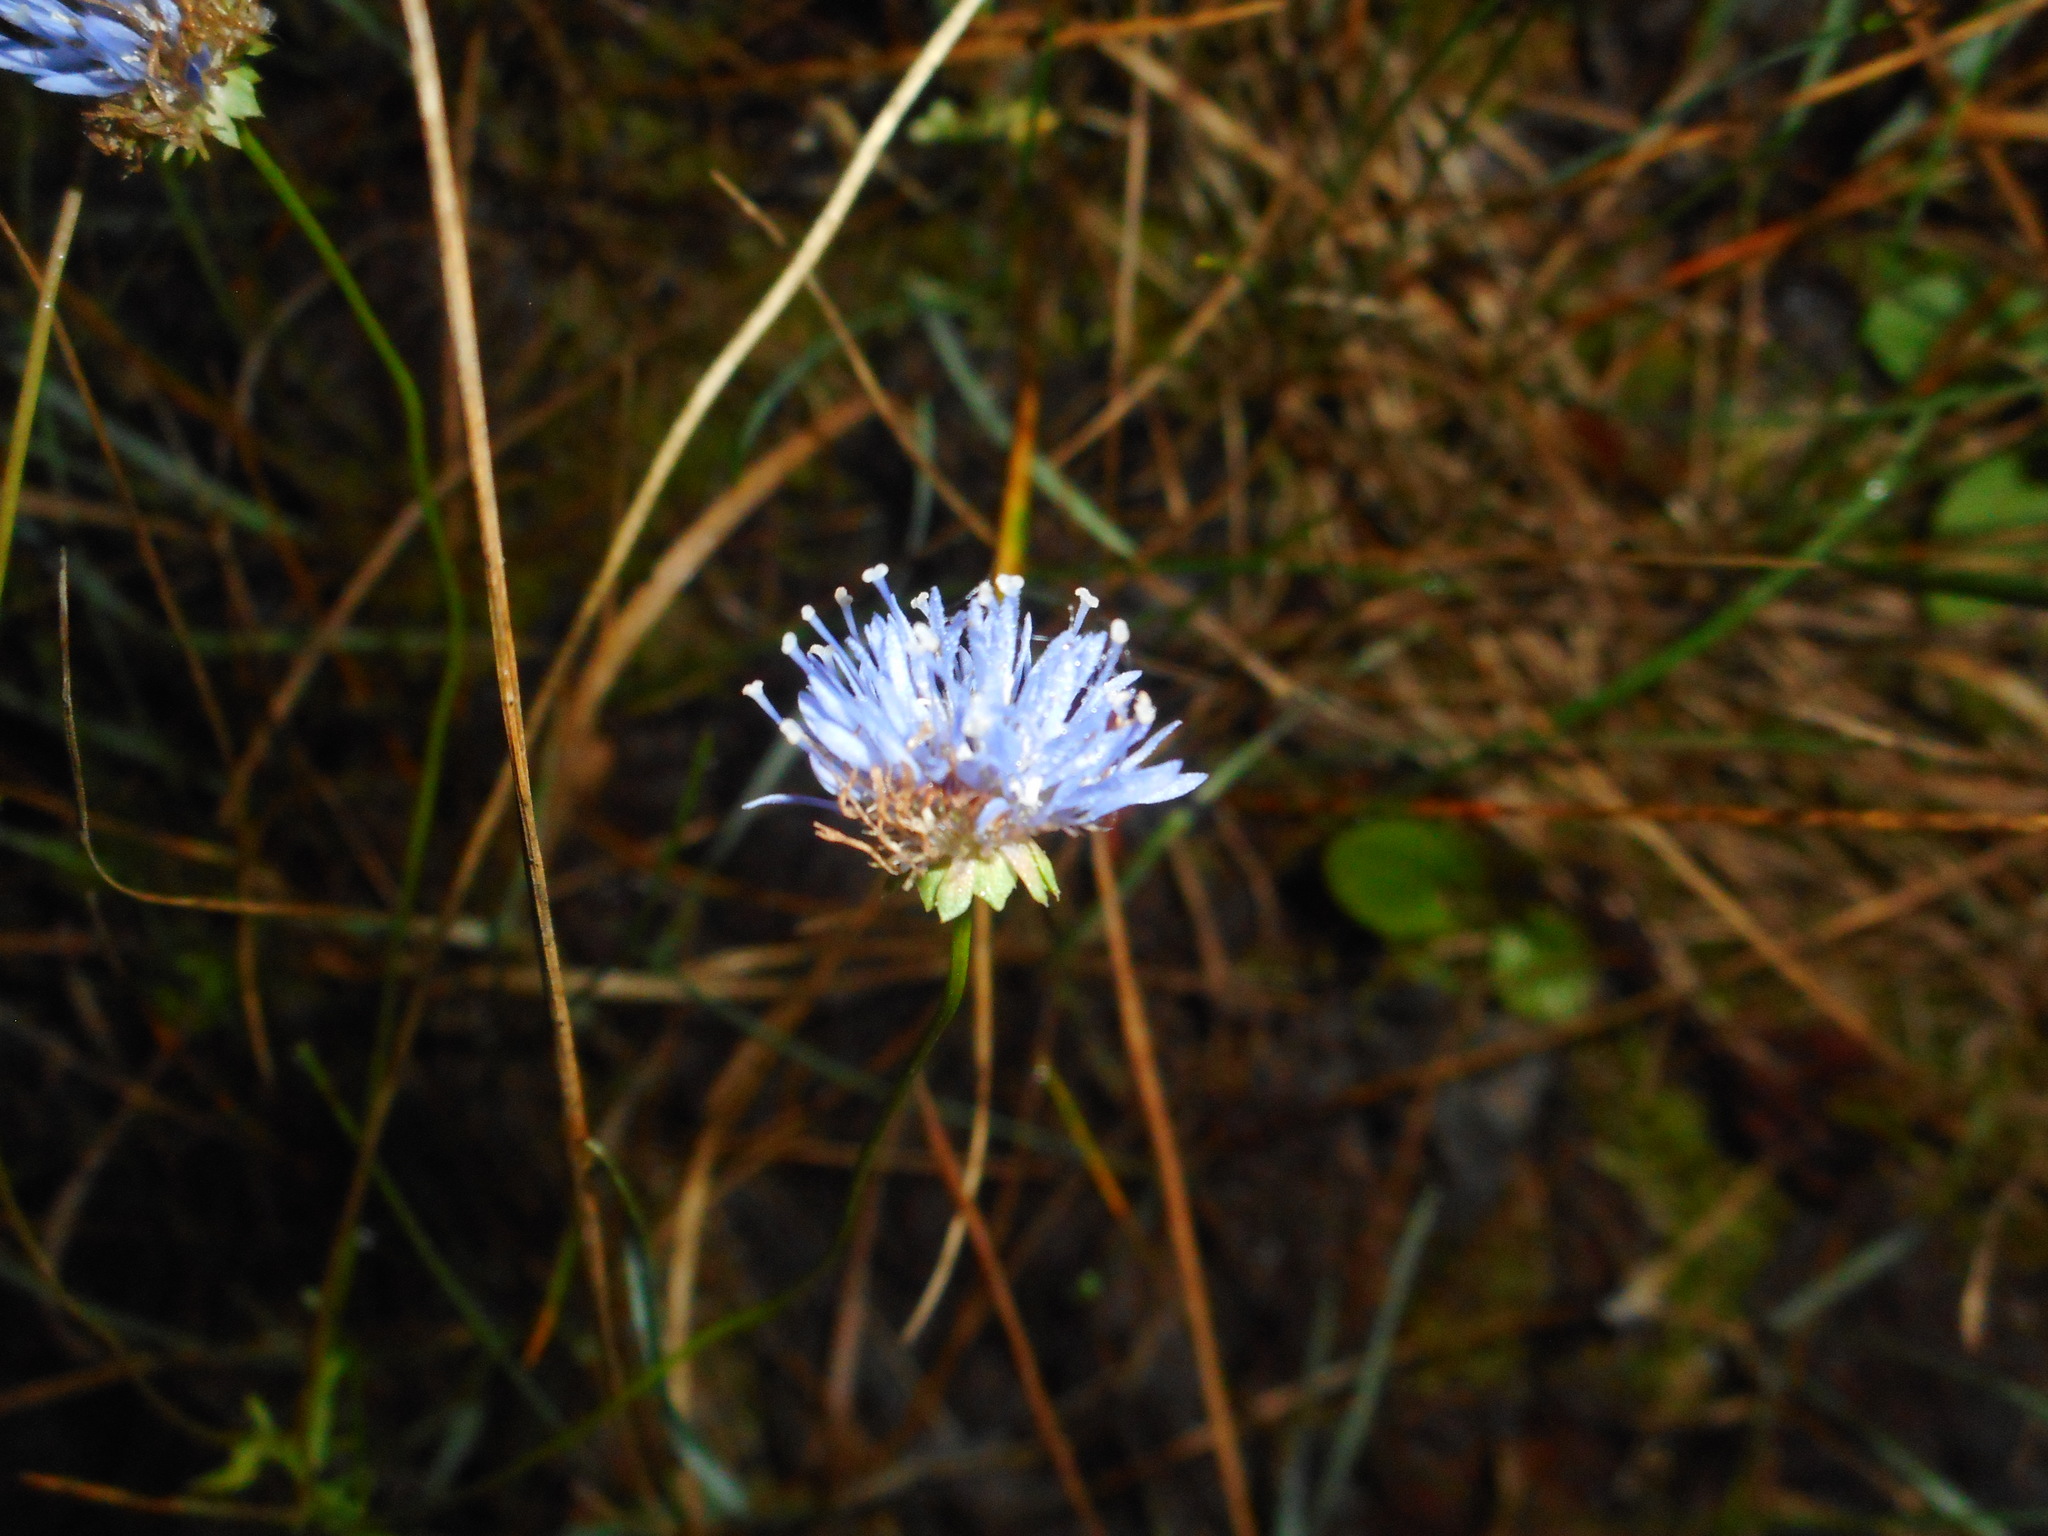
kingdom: Plantae
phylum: Tracheophyta
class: Magnoliopsida
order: Asterales
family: Campanulaceae
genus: Jasione
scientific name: Jasione montana
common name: Sheep's-bit
